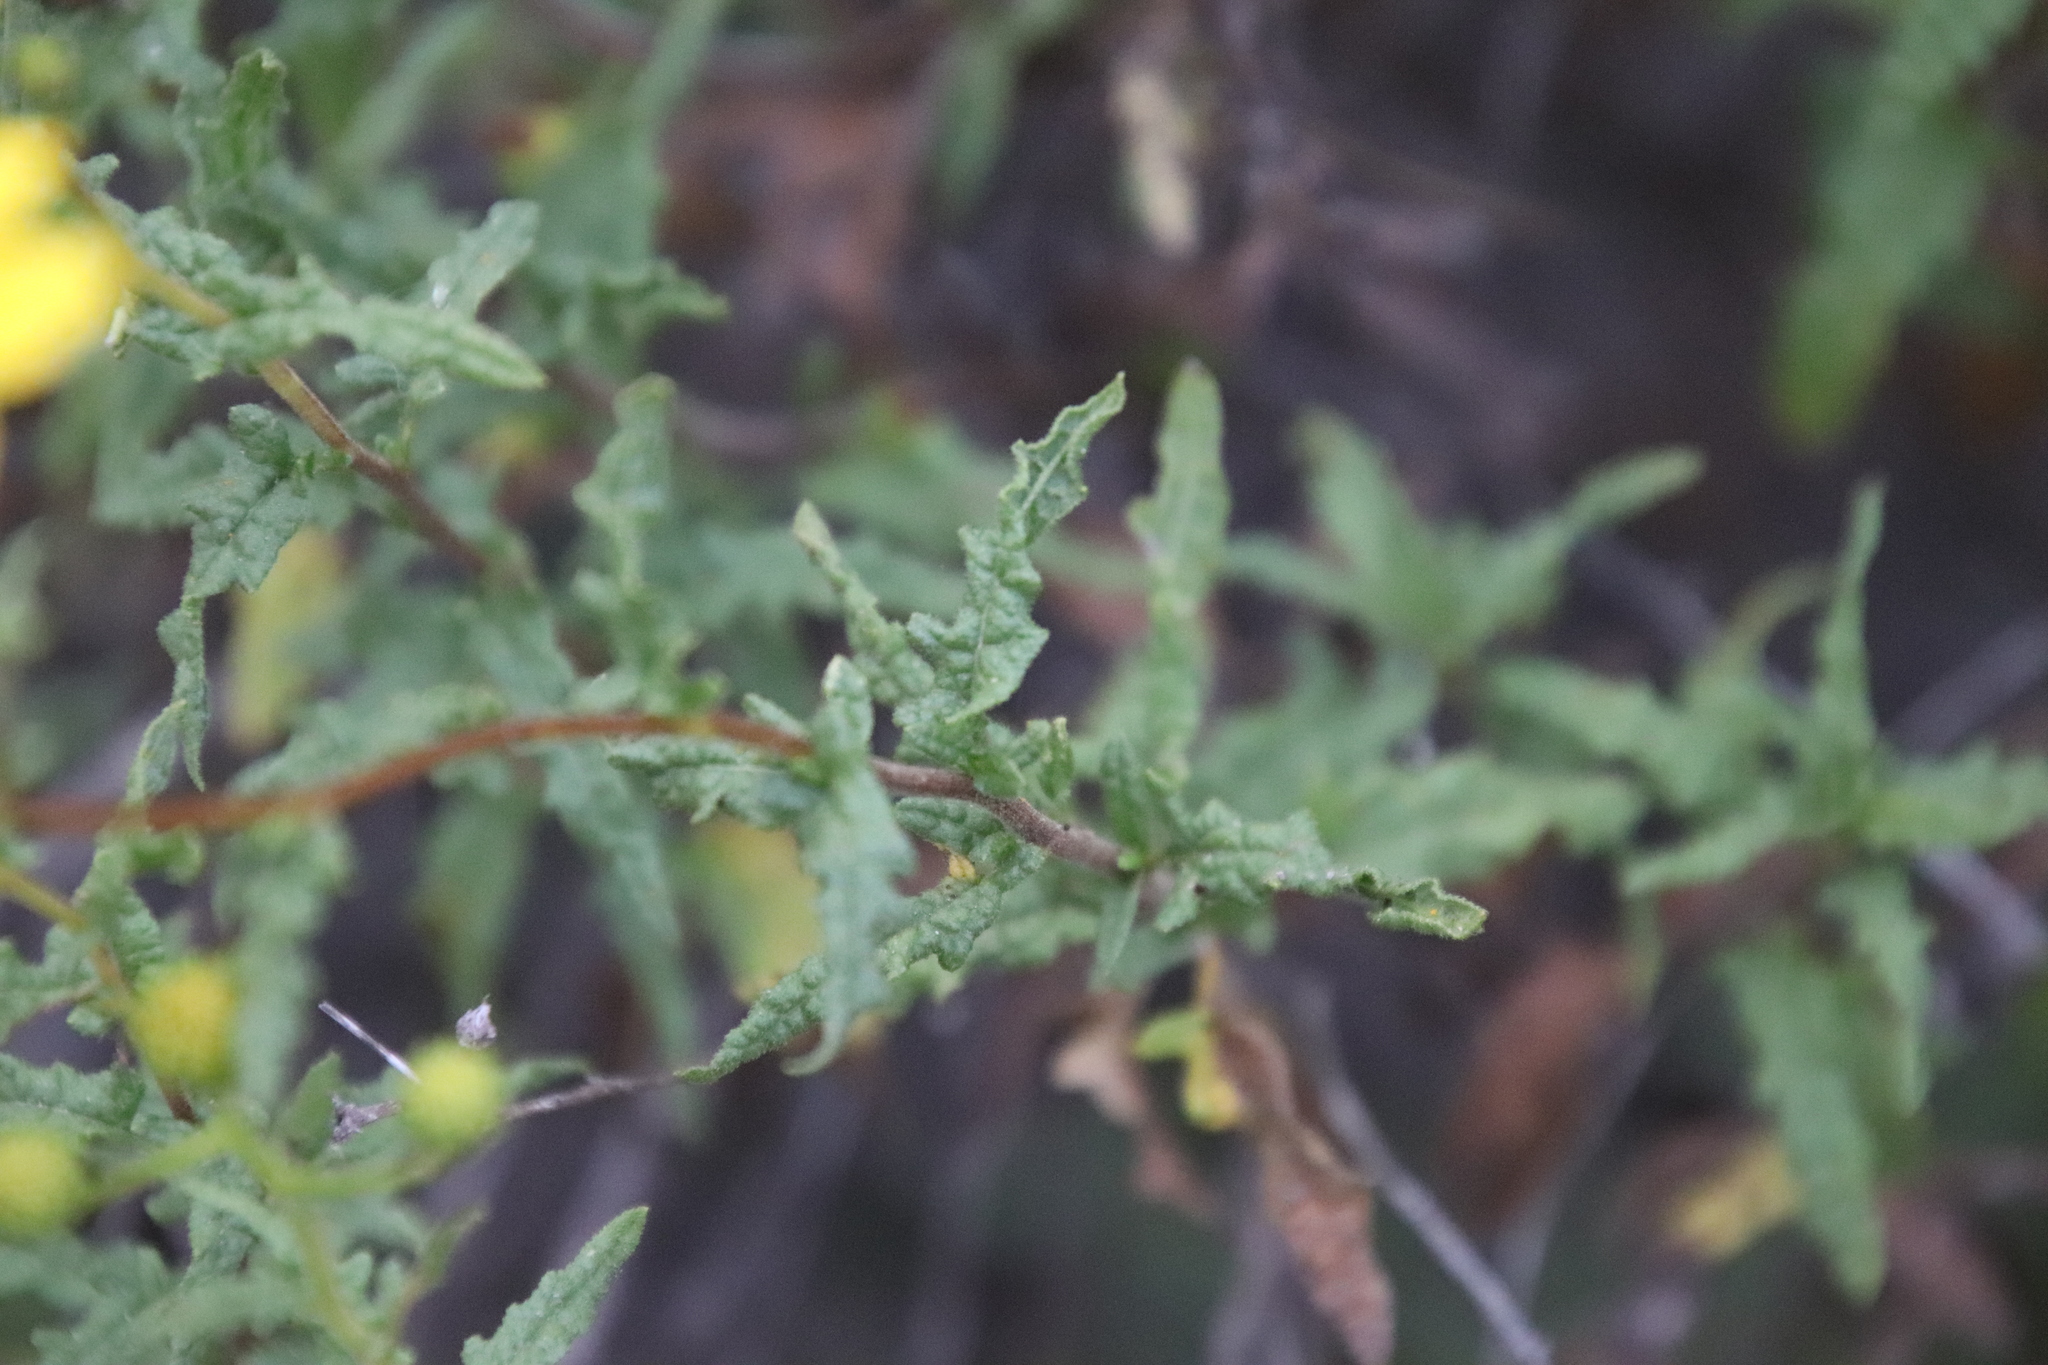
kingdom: Plantae
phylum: Tracheophyta
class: Magnoliopsida
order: Asterales
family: Asteraceae
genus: Bahiopsis
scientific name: Bahiopsis laciniata
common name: San diego county viguiera
